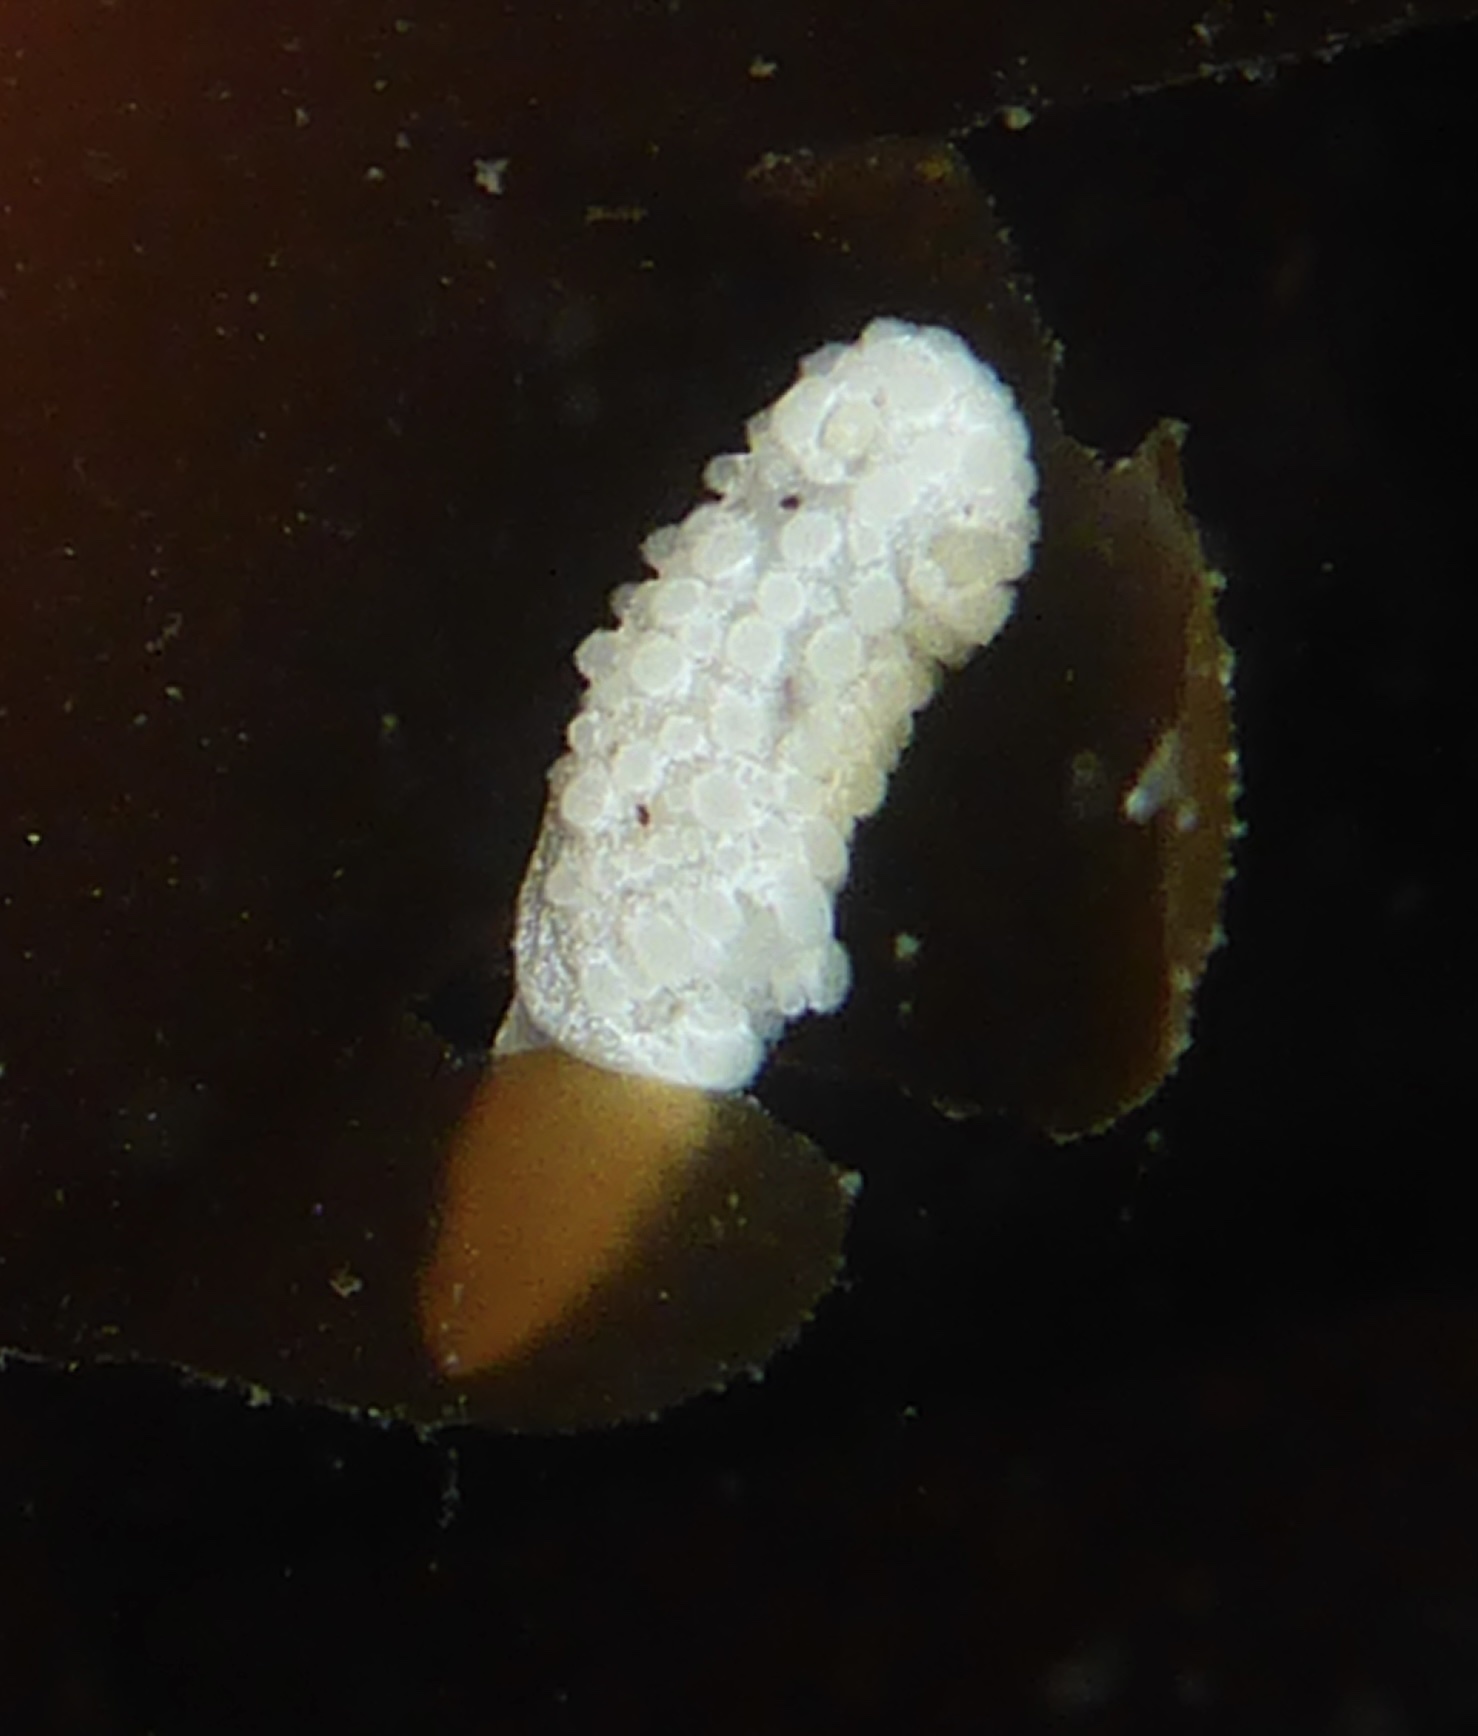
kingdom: Animalia
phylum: Mollusca
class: Gastropoda
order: Nudibranchia
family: Aegiridae
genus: Aegires
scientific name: Aegires albopunctatus
